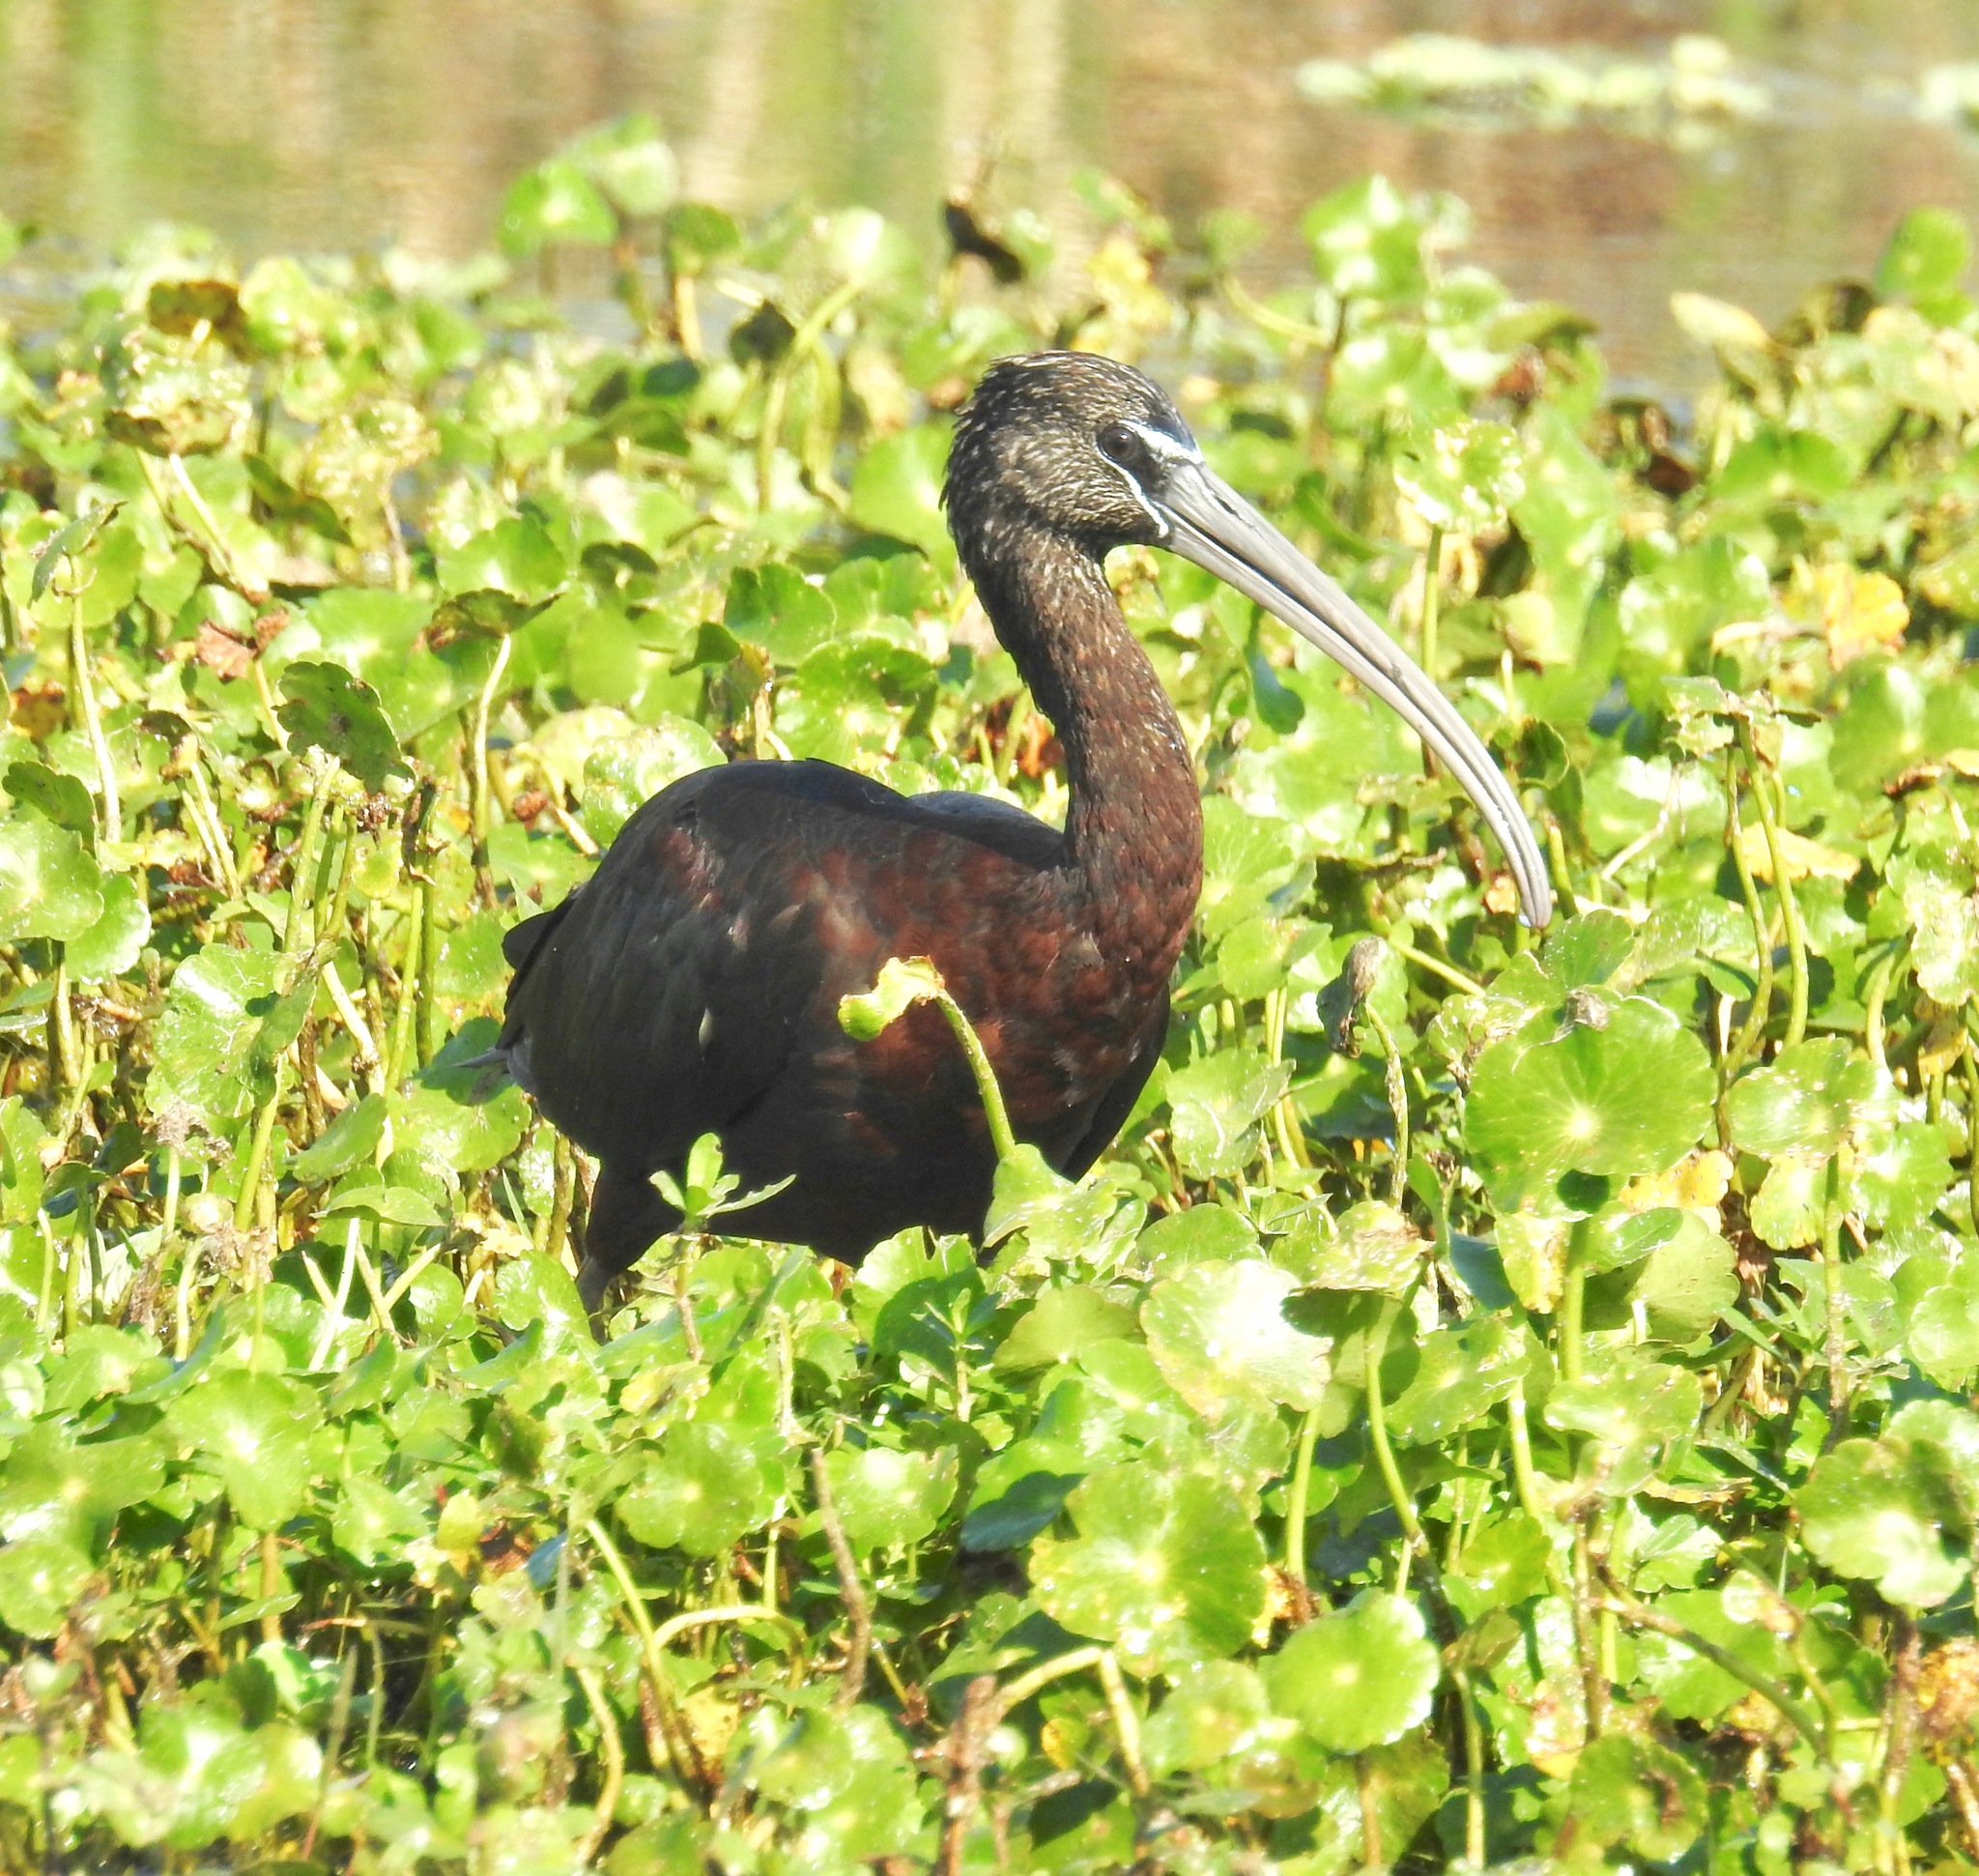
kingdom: Animalia
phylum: Chordata
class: Aves
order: Pelecaniformes
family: Threskiornithidae
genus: Plegadis
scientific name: Plegadis falcinellus
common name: Glossy ibis
